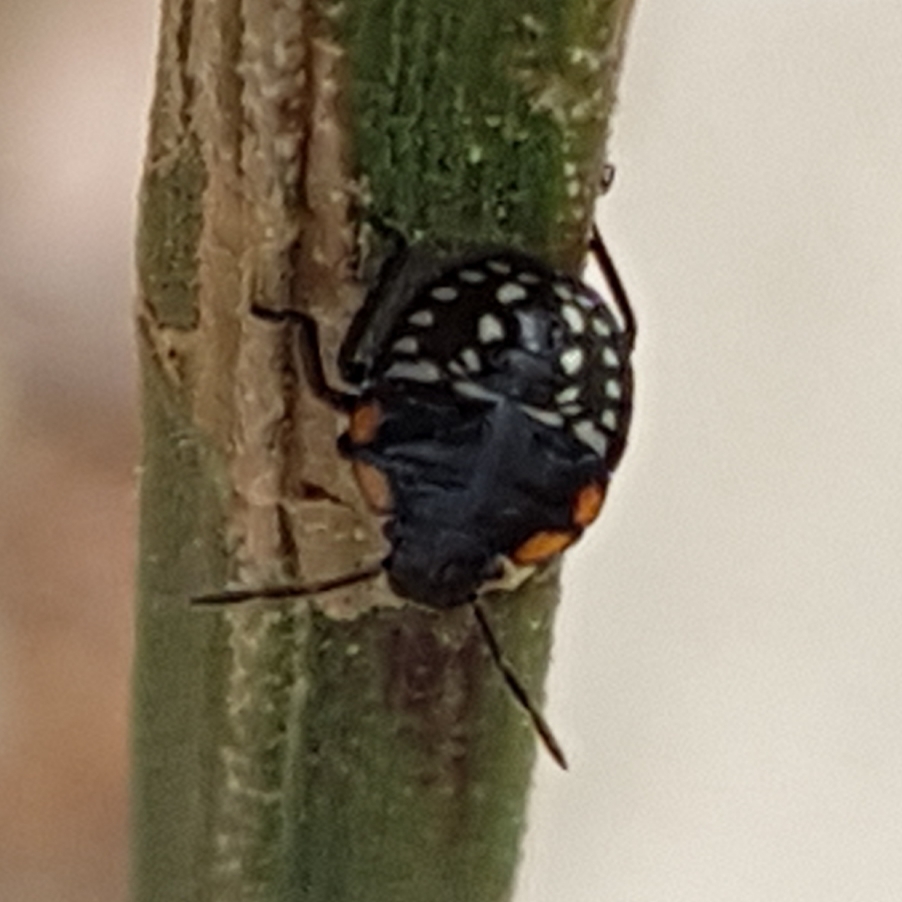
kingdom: Animalia
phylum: Arthropoda
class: Insecta
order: Hemiptera
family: Pentatomidae
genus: Nezara
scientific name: Nezara viridula
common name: Southern green stink bug
